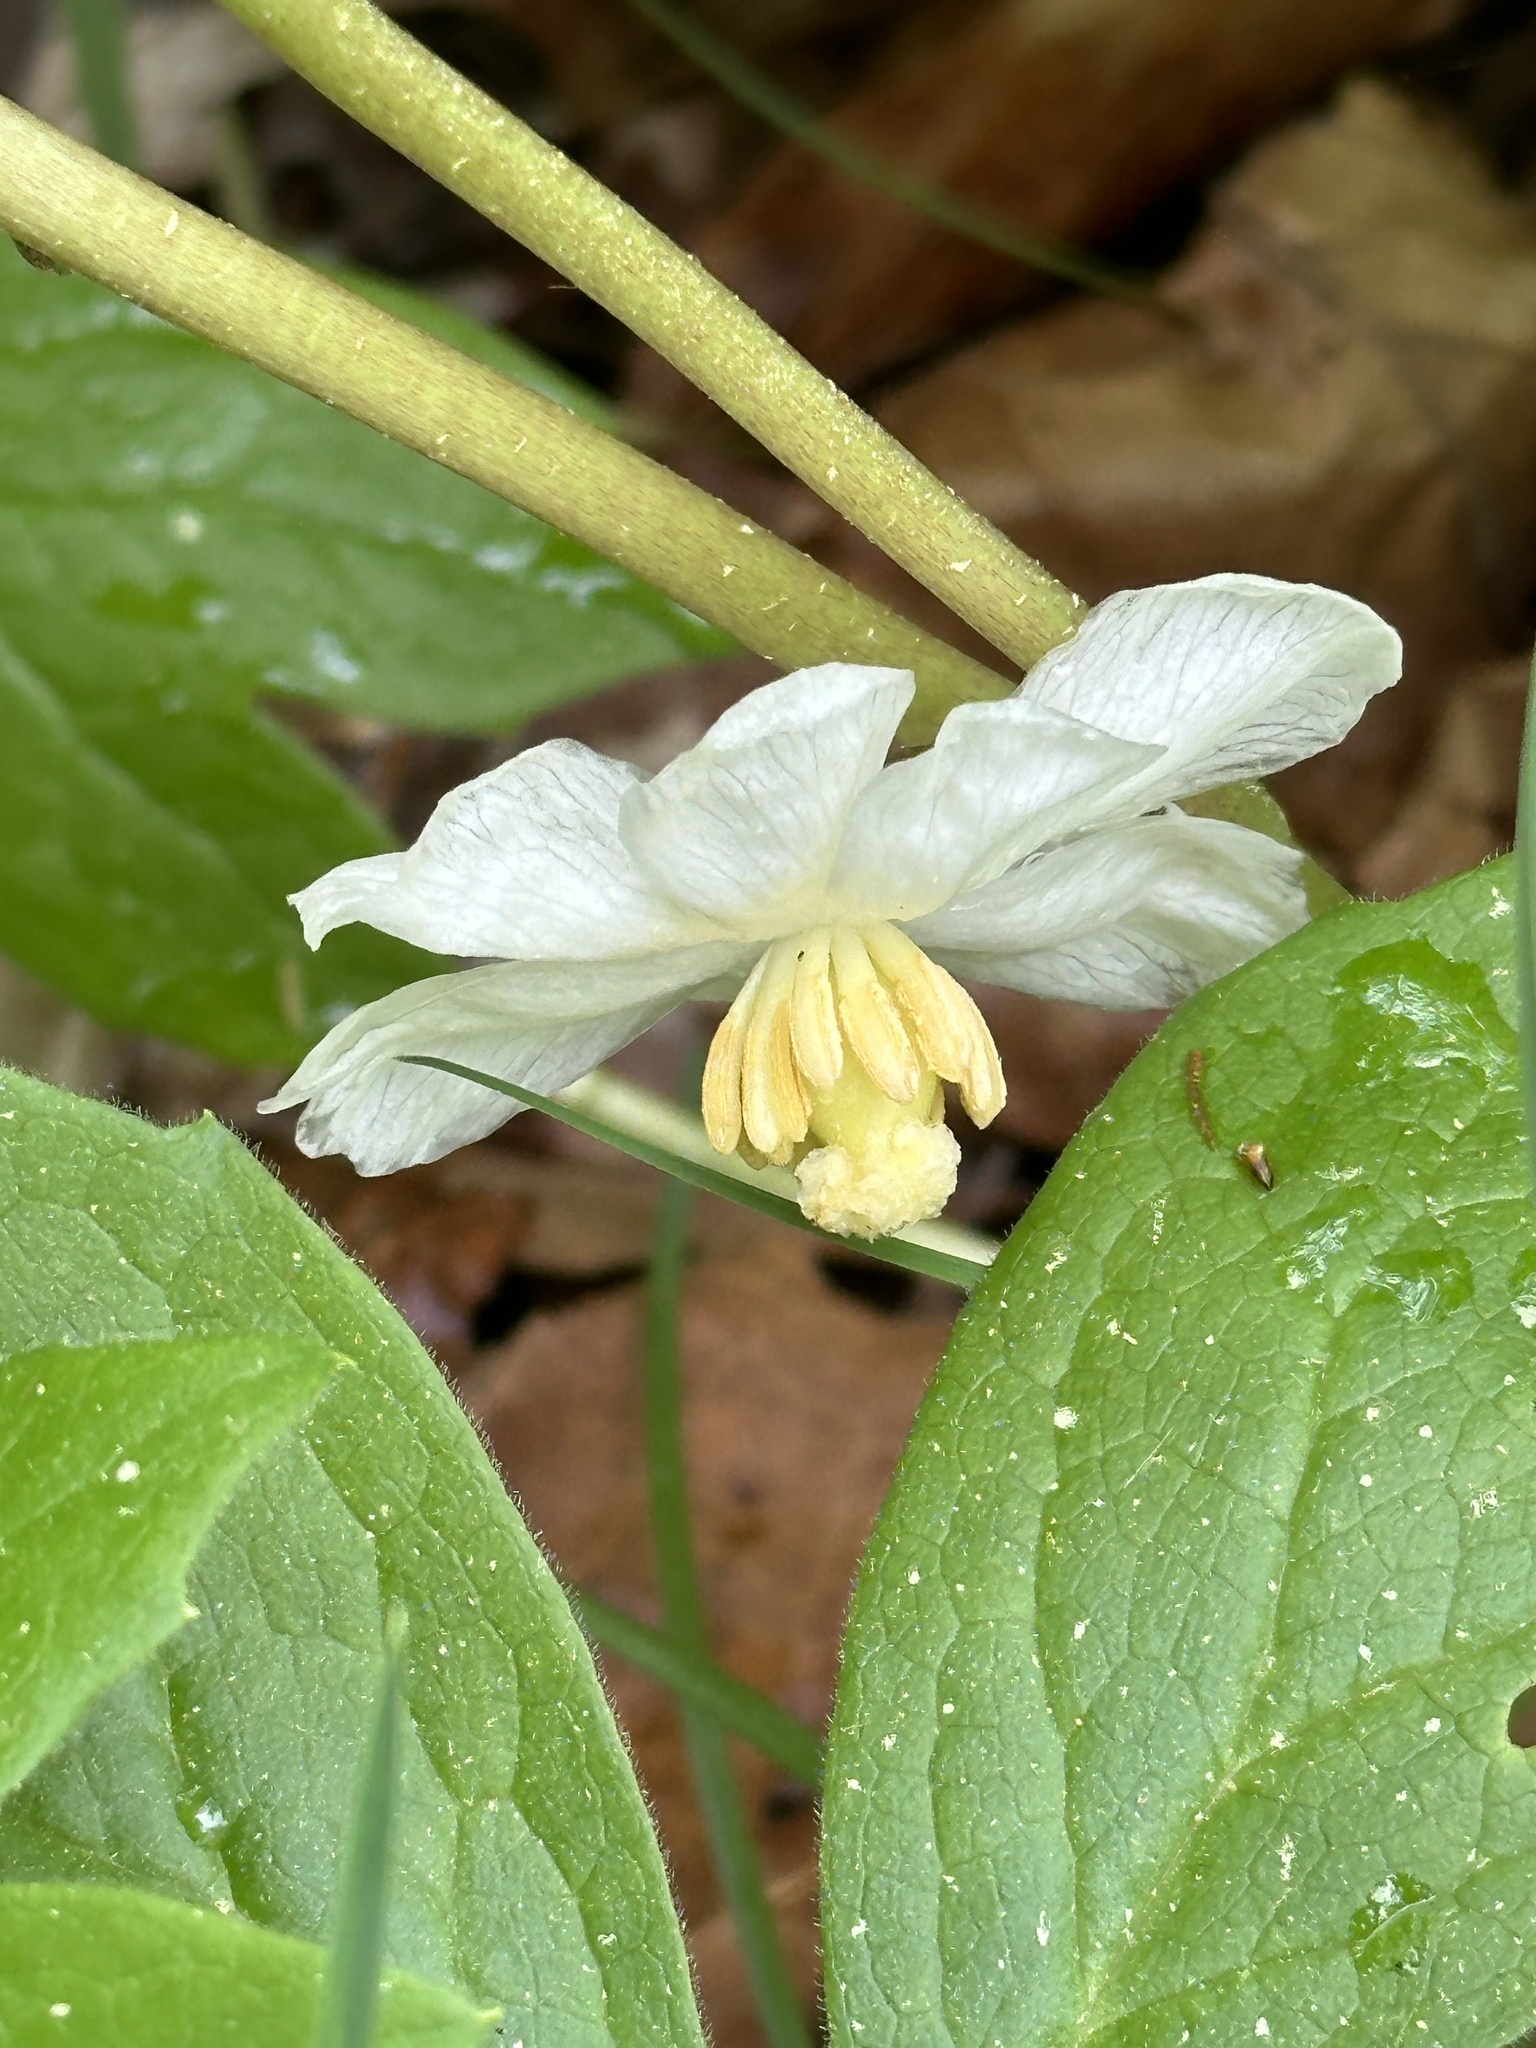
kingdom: Plantae
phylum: Tracheophyta
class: Magnoliopsida
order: Ranunculales
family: Berberidaceae
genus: Podophyllum
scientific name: Podophyllum peltatum
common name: Wild mandrake
